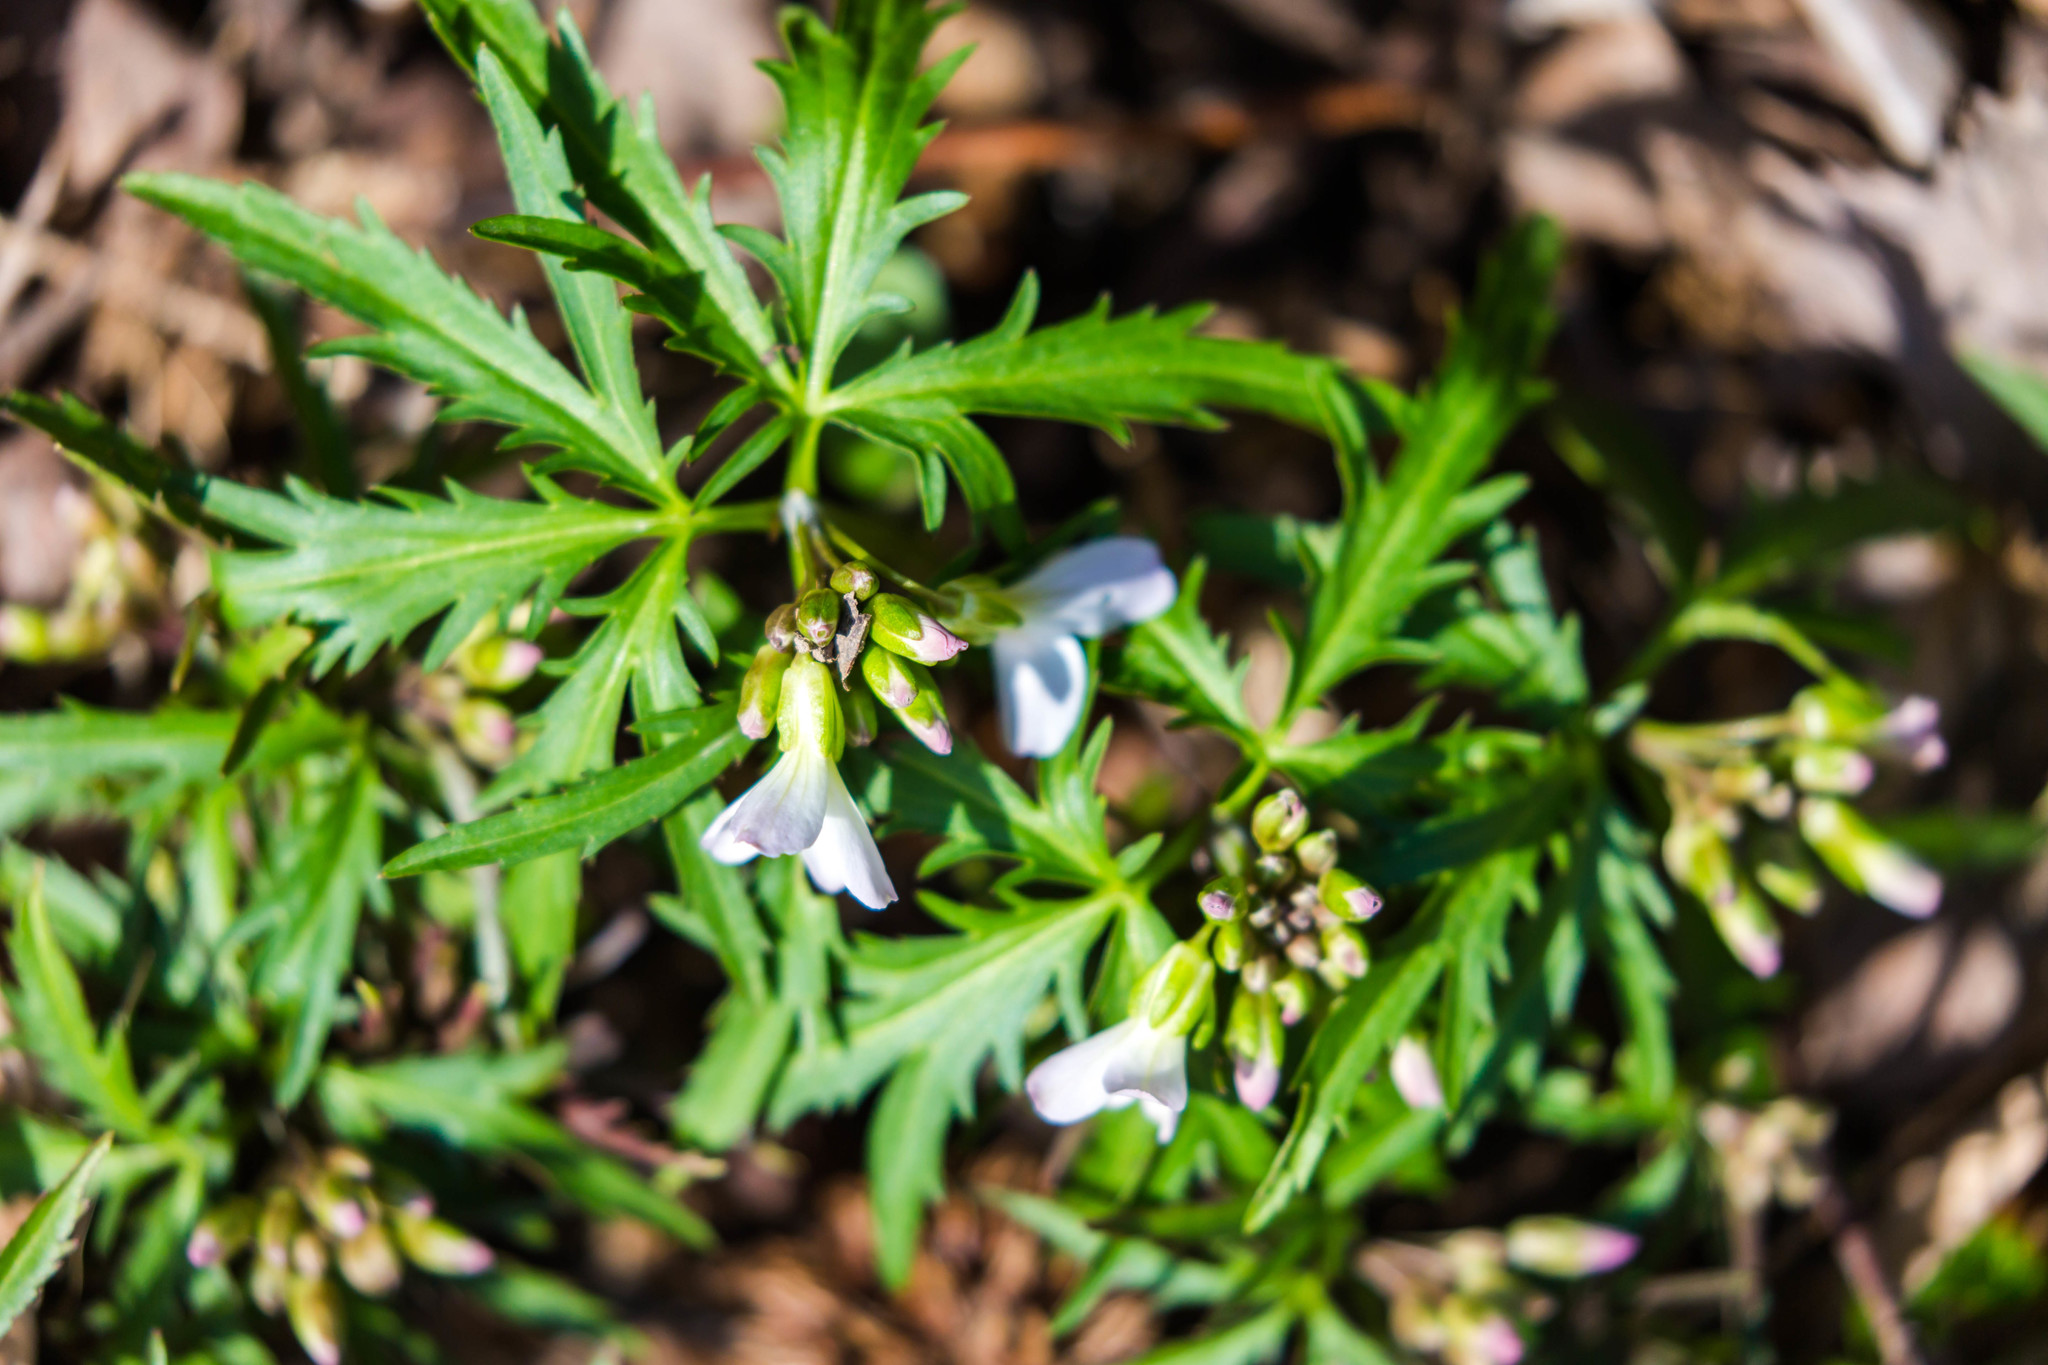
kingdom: Plantae
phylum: Tracheophyta
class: Magnoliopsida
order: Brassicales
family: Brassicaceae
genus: Cardamine
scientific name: Cardamine concatenata
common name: Cut-leaf toothcup
